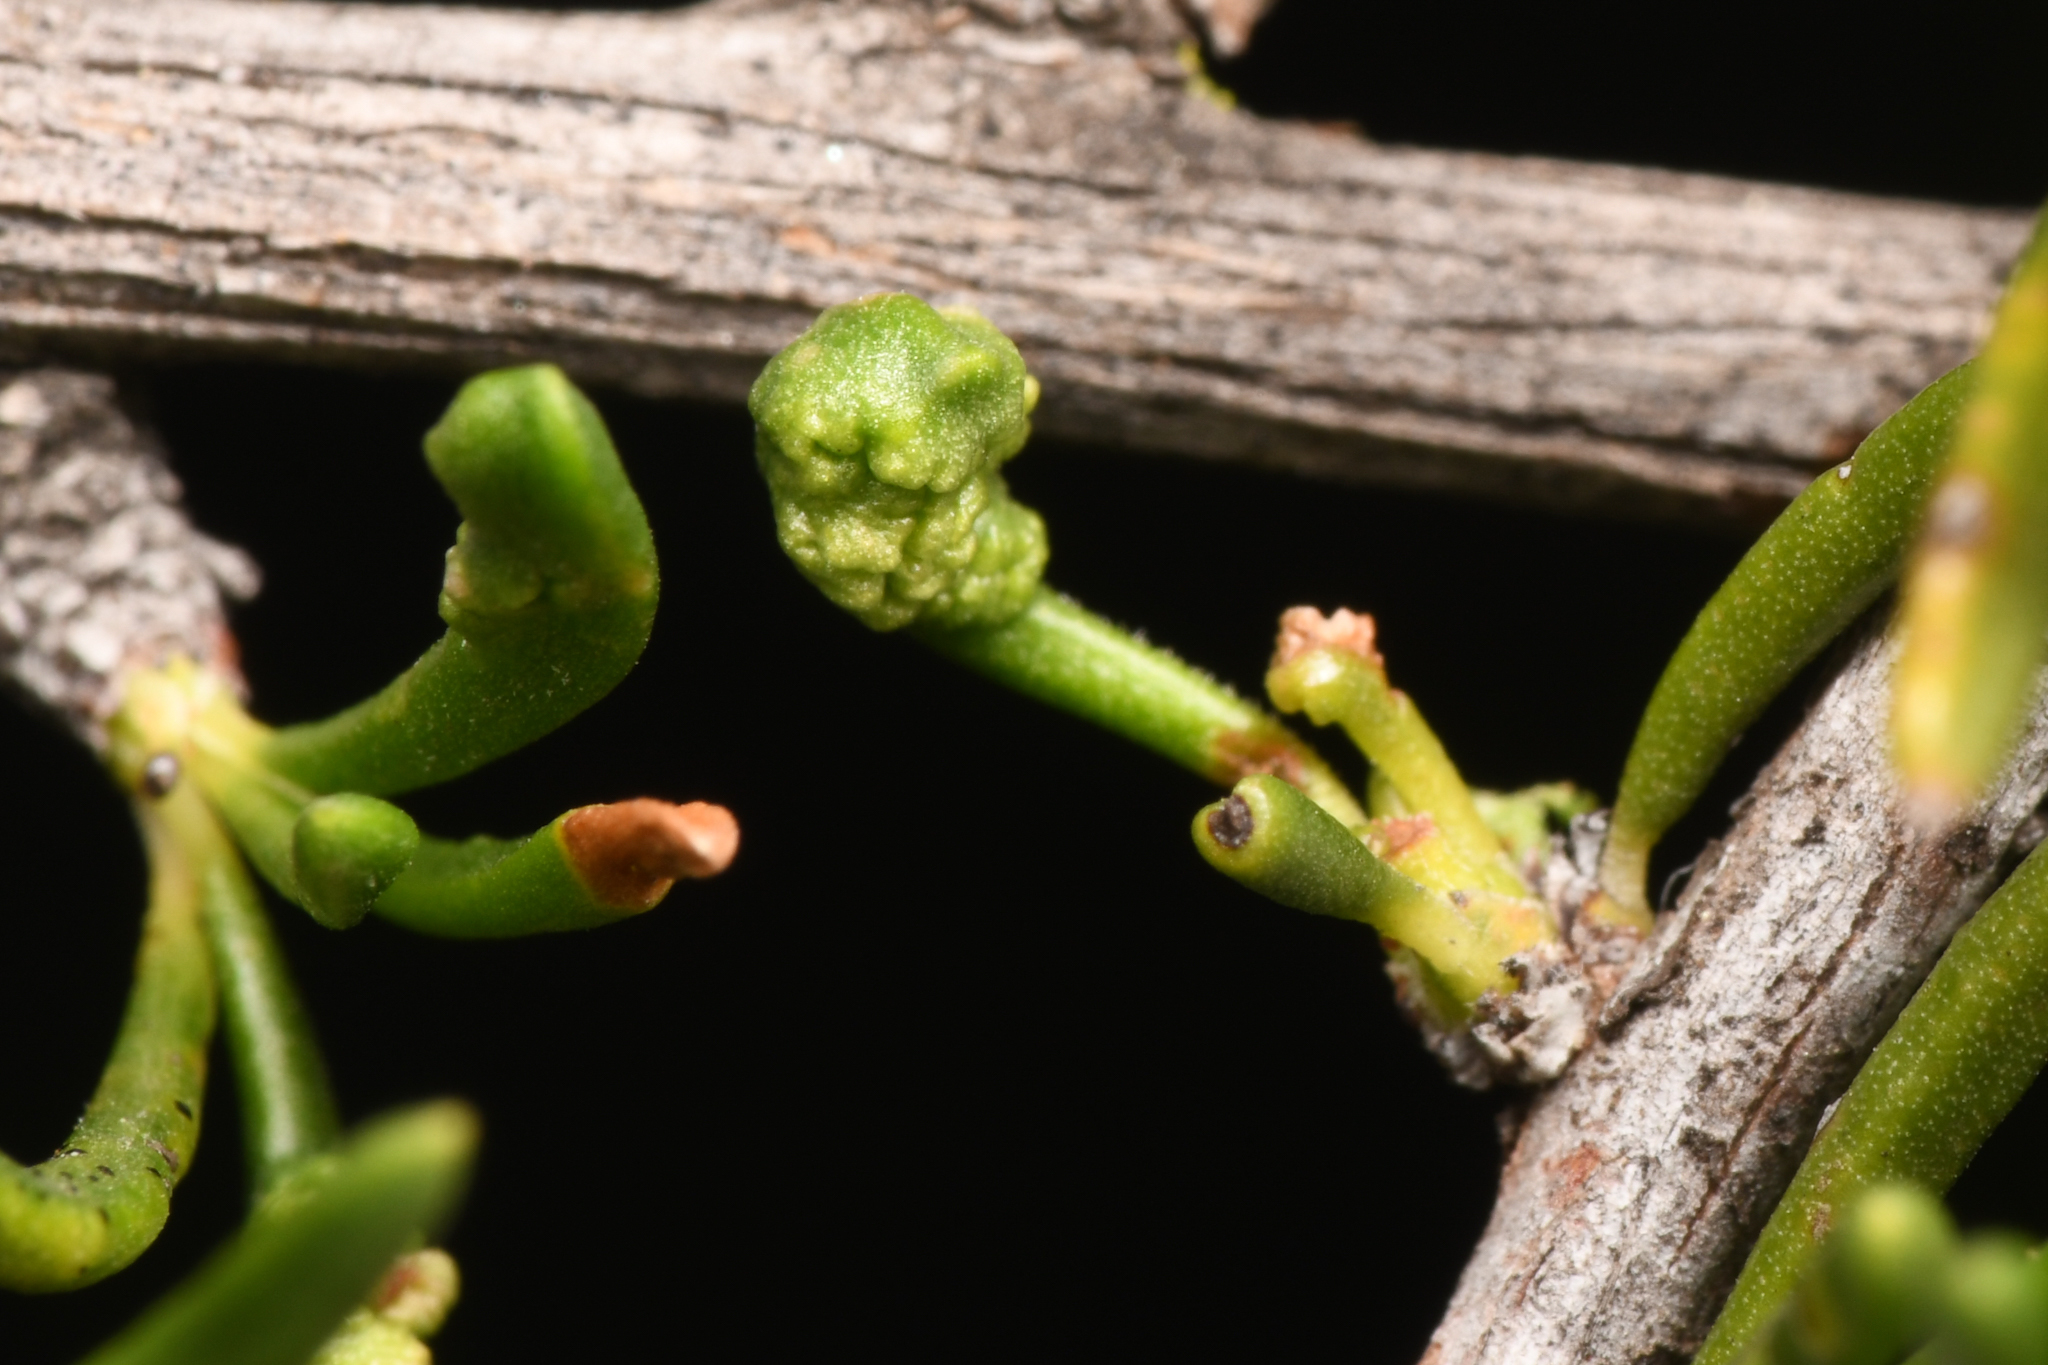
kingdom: Animalia
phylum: Arthropoda
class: Arachnida
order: Trombidiformes
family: Eriophyidae
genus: Eriophyes
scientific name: Eriophyes
